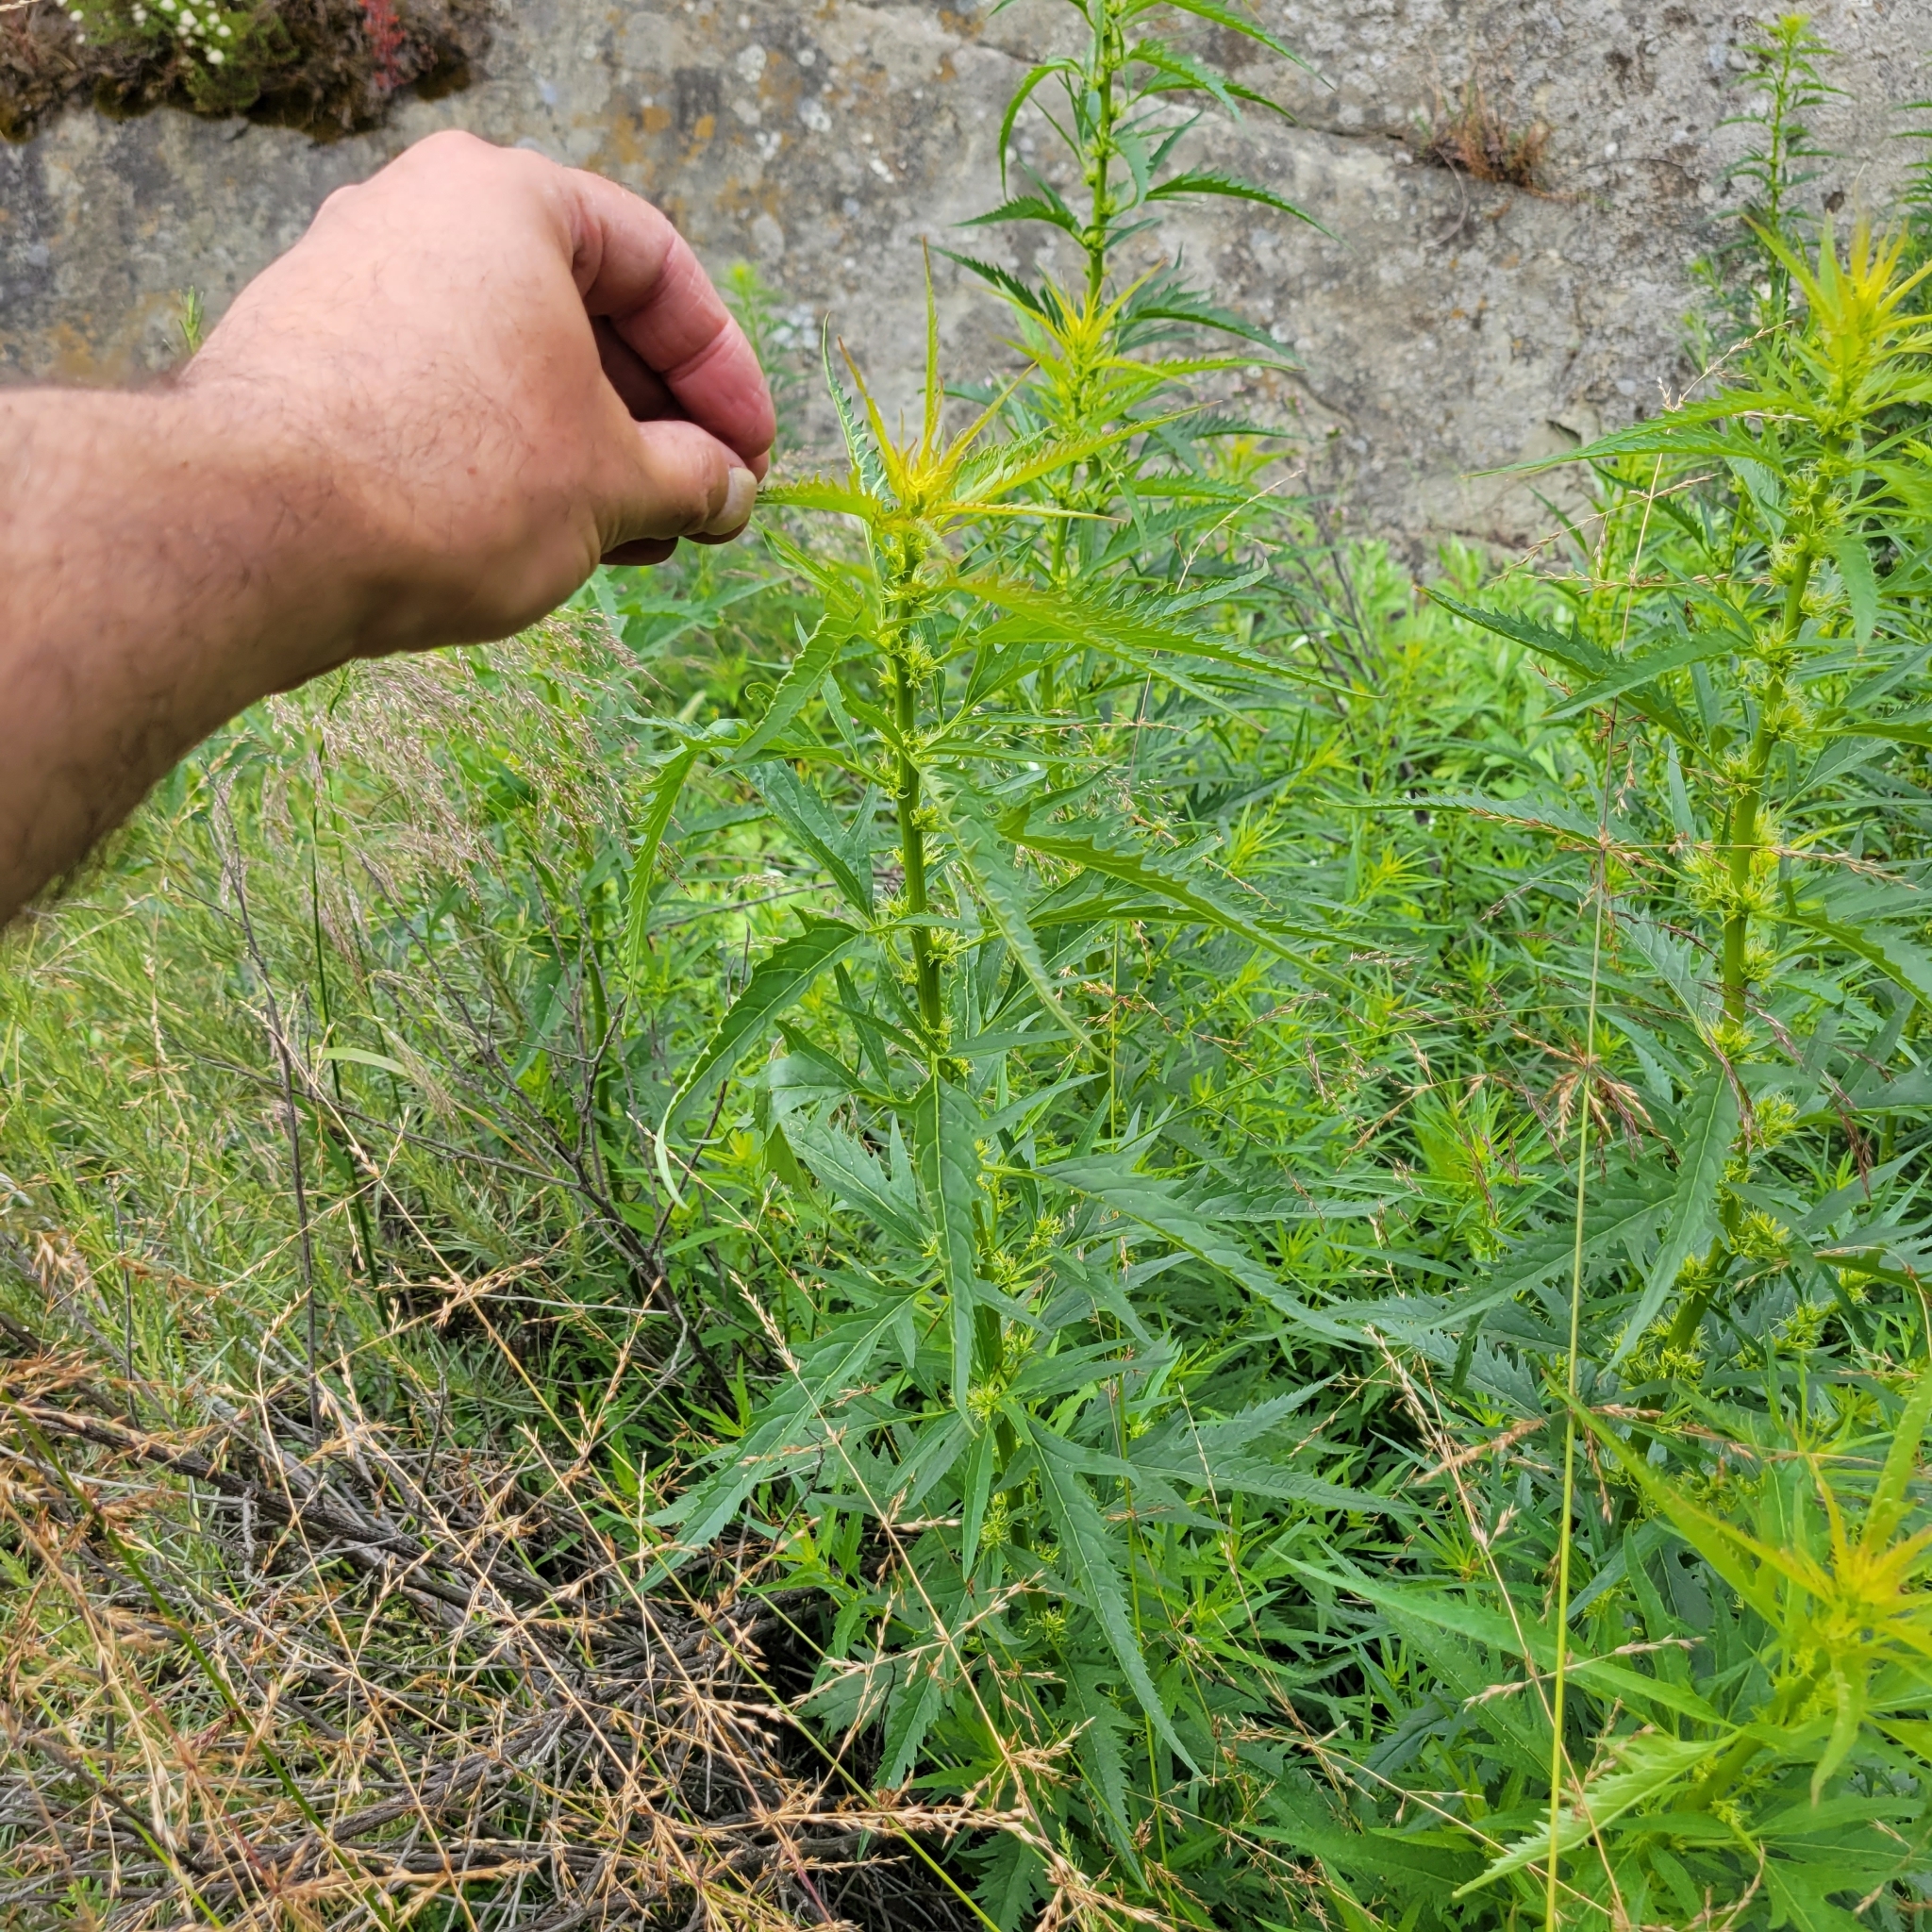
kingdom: Plantae
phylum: Tracheophyta
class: Magnoliopsida
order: Cucurbitales
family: Datiscaceae
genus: Datisca
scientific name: Datisca glomerata
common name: Durango-root
